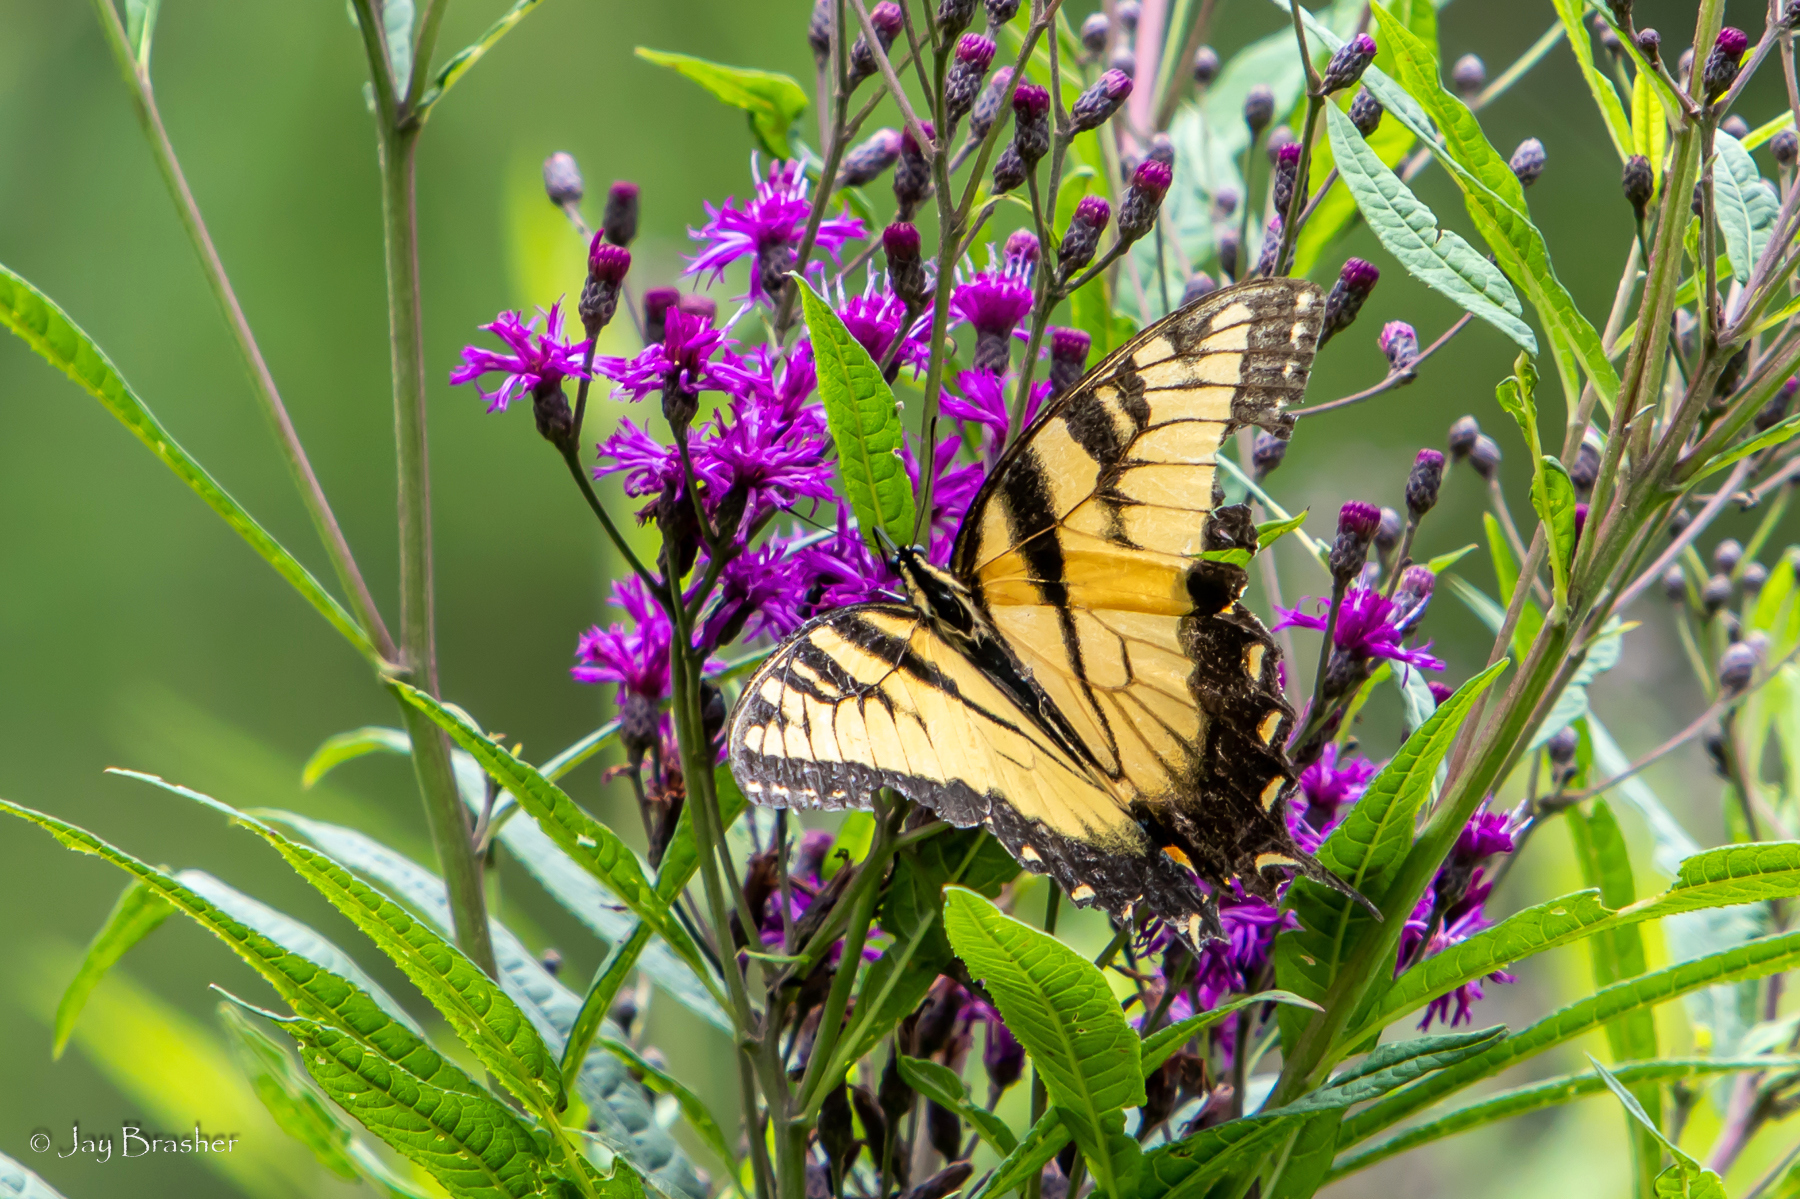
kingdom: Animalia
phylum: Arthropoda
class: Insecta
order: Lepidoptera
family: Papilionidae
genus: Papilio
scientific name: Papilio glaucus
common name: Tiger swallowtail
